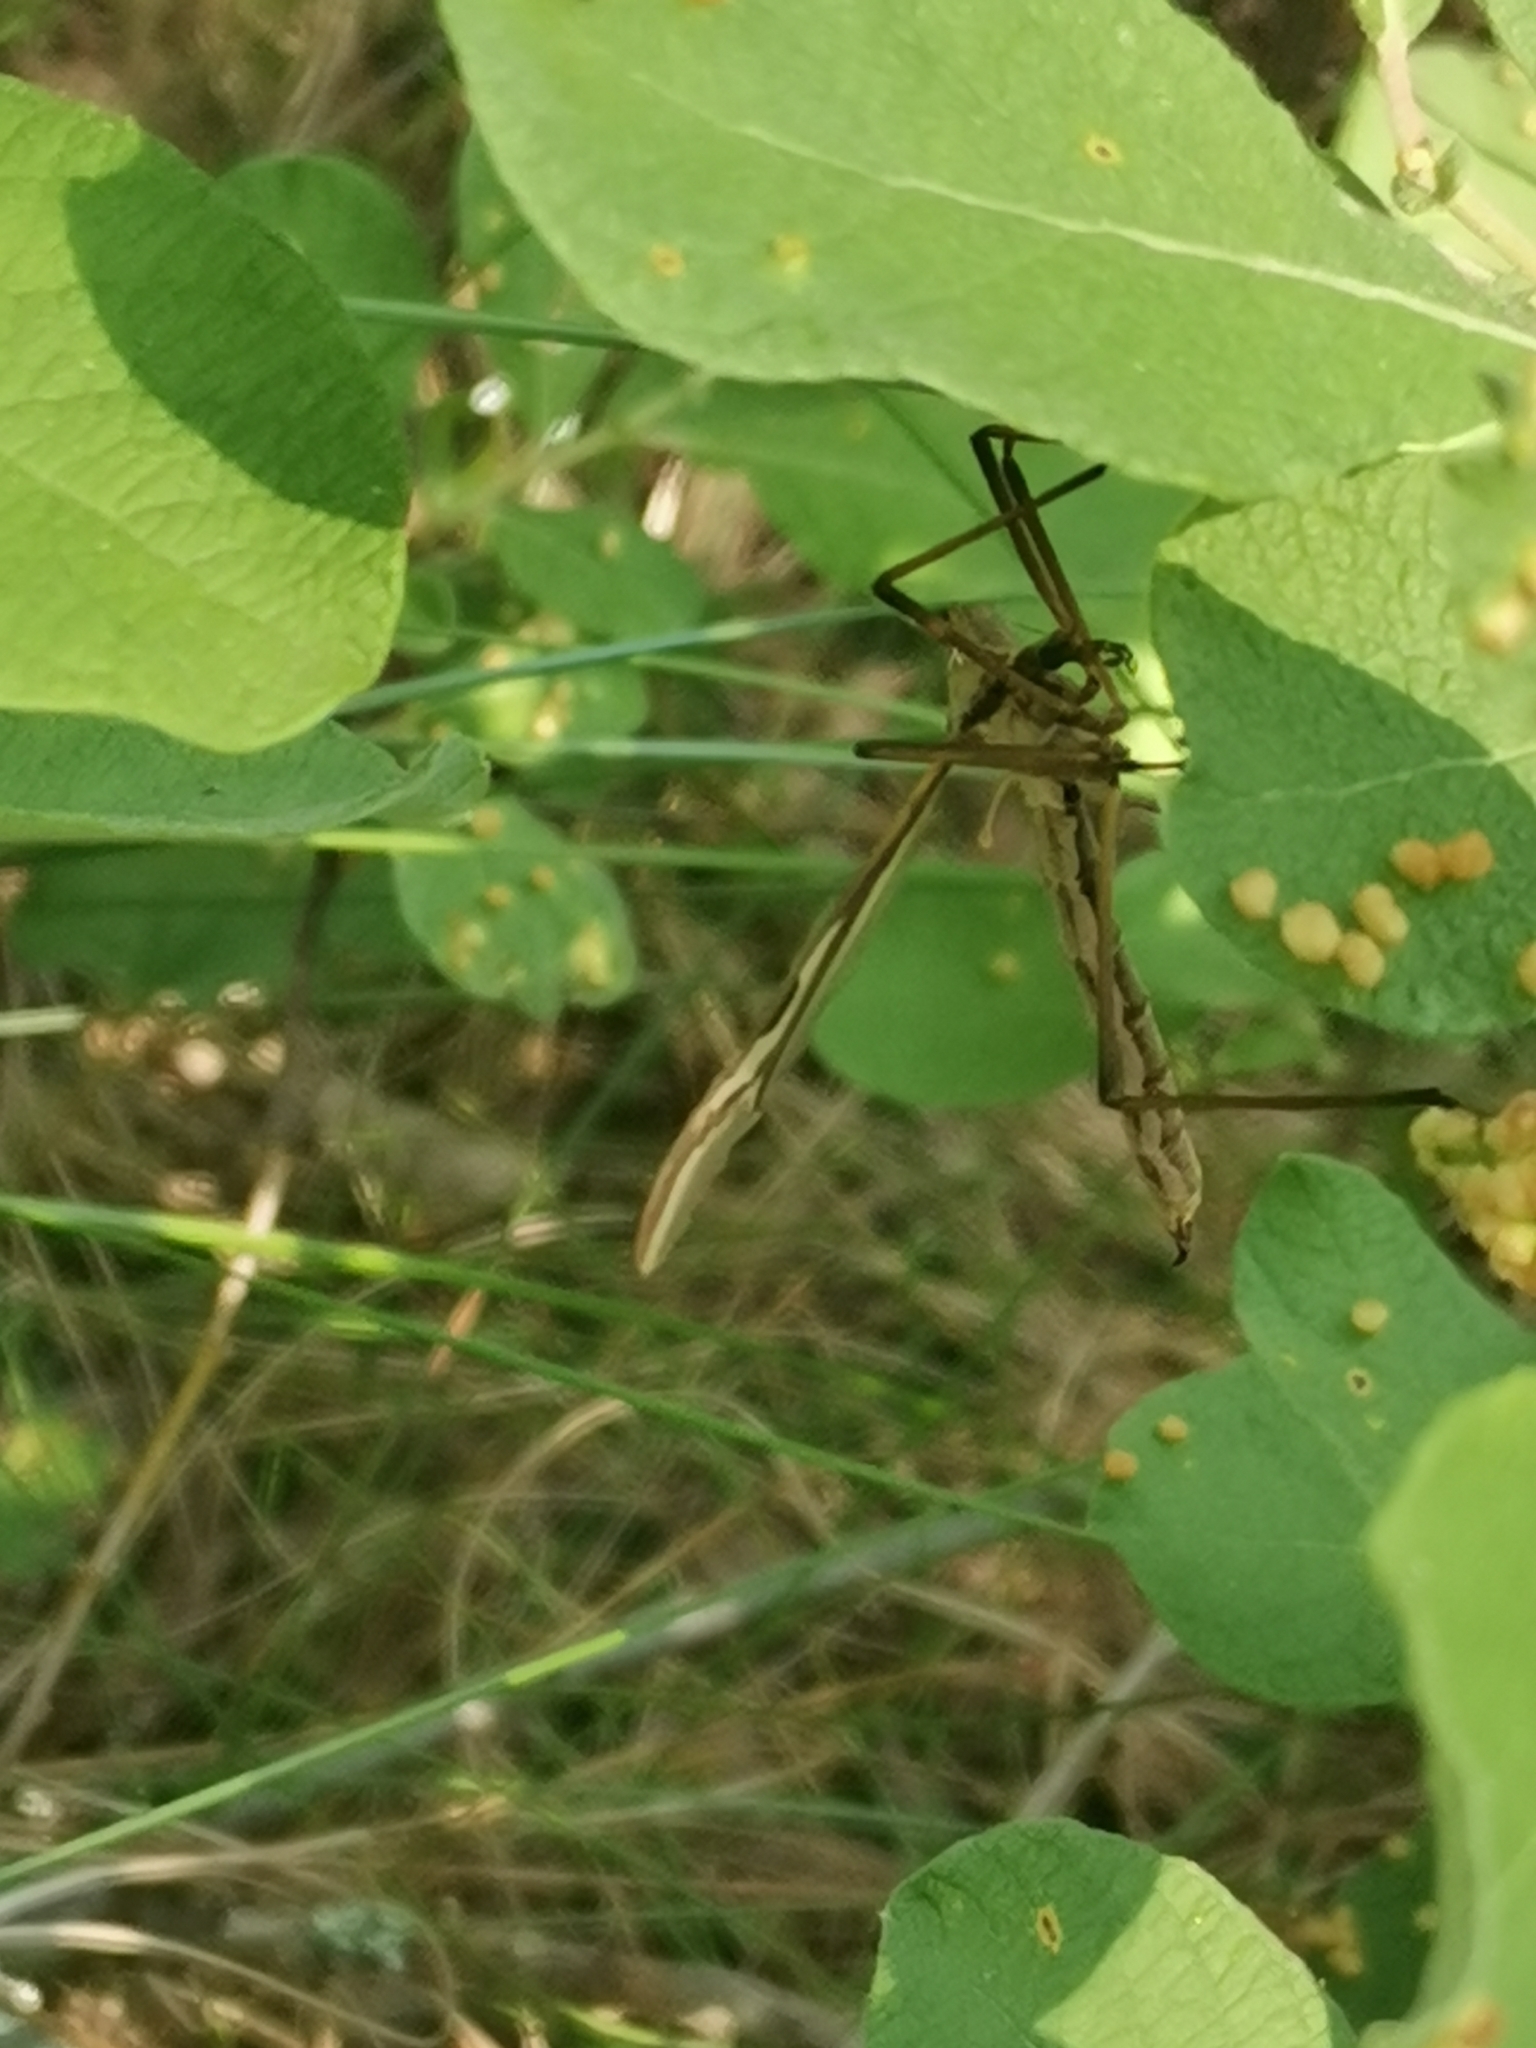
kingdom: Animalia
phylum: Arthropoda
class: Insecta
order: Diptera
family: Pediciidae
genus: Pedicia
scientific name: Pedicia rivosa
